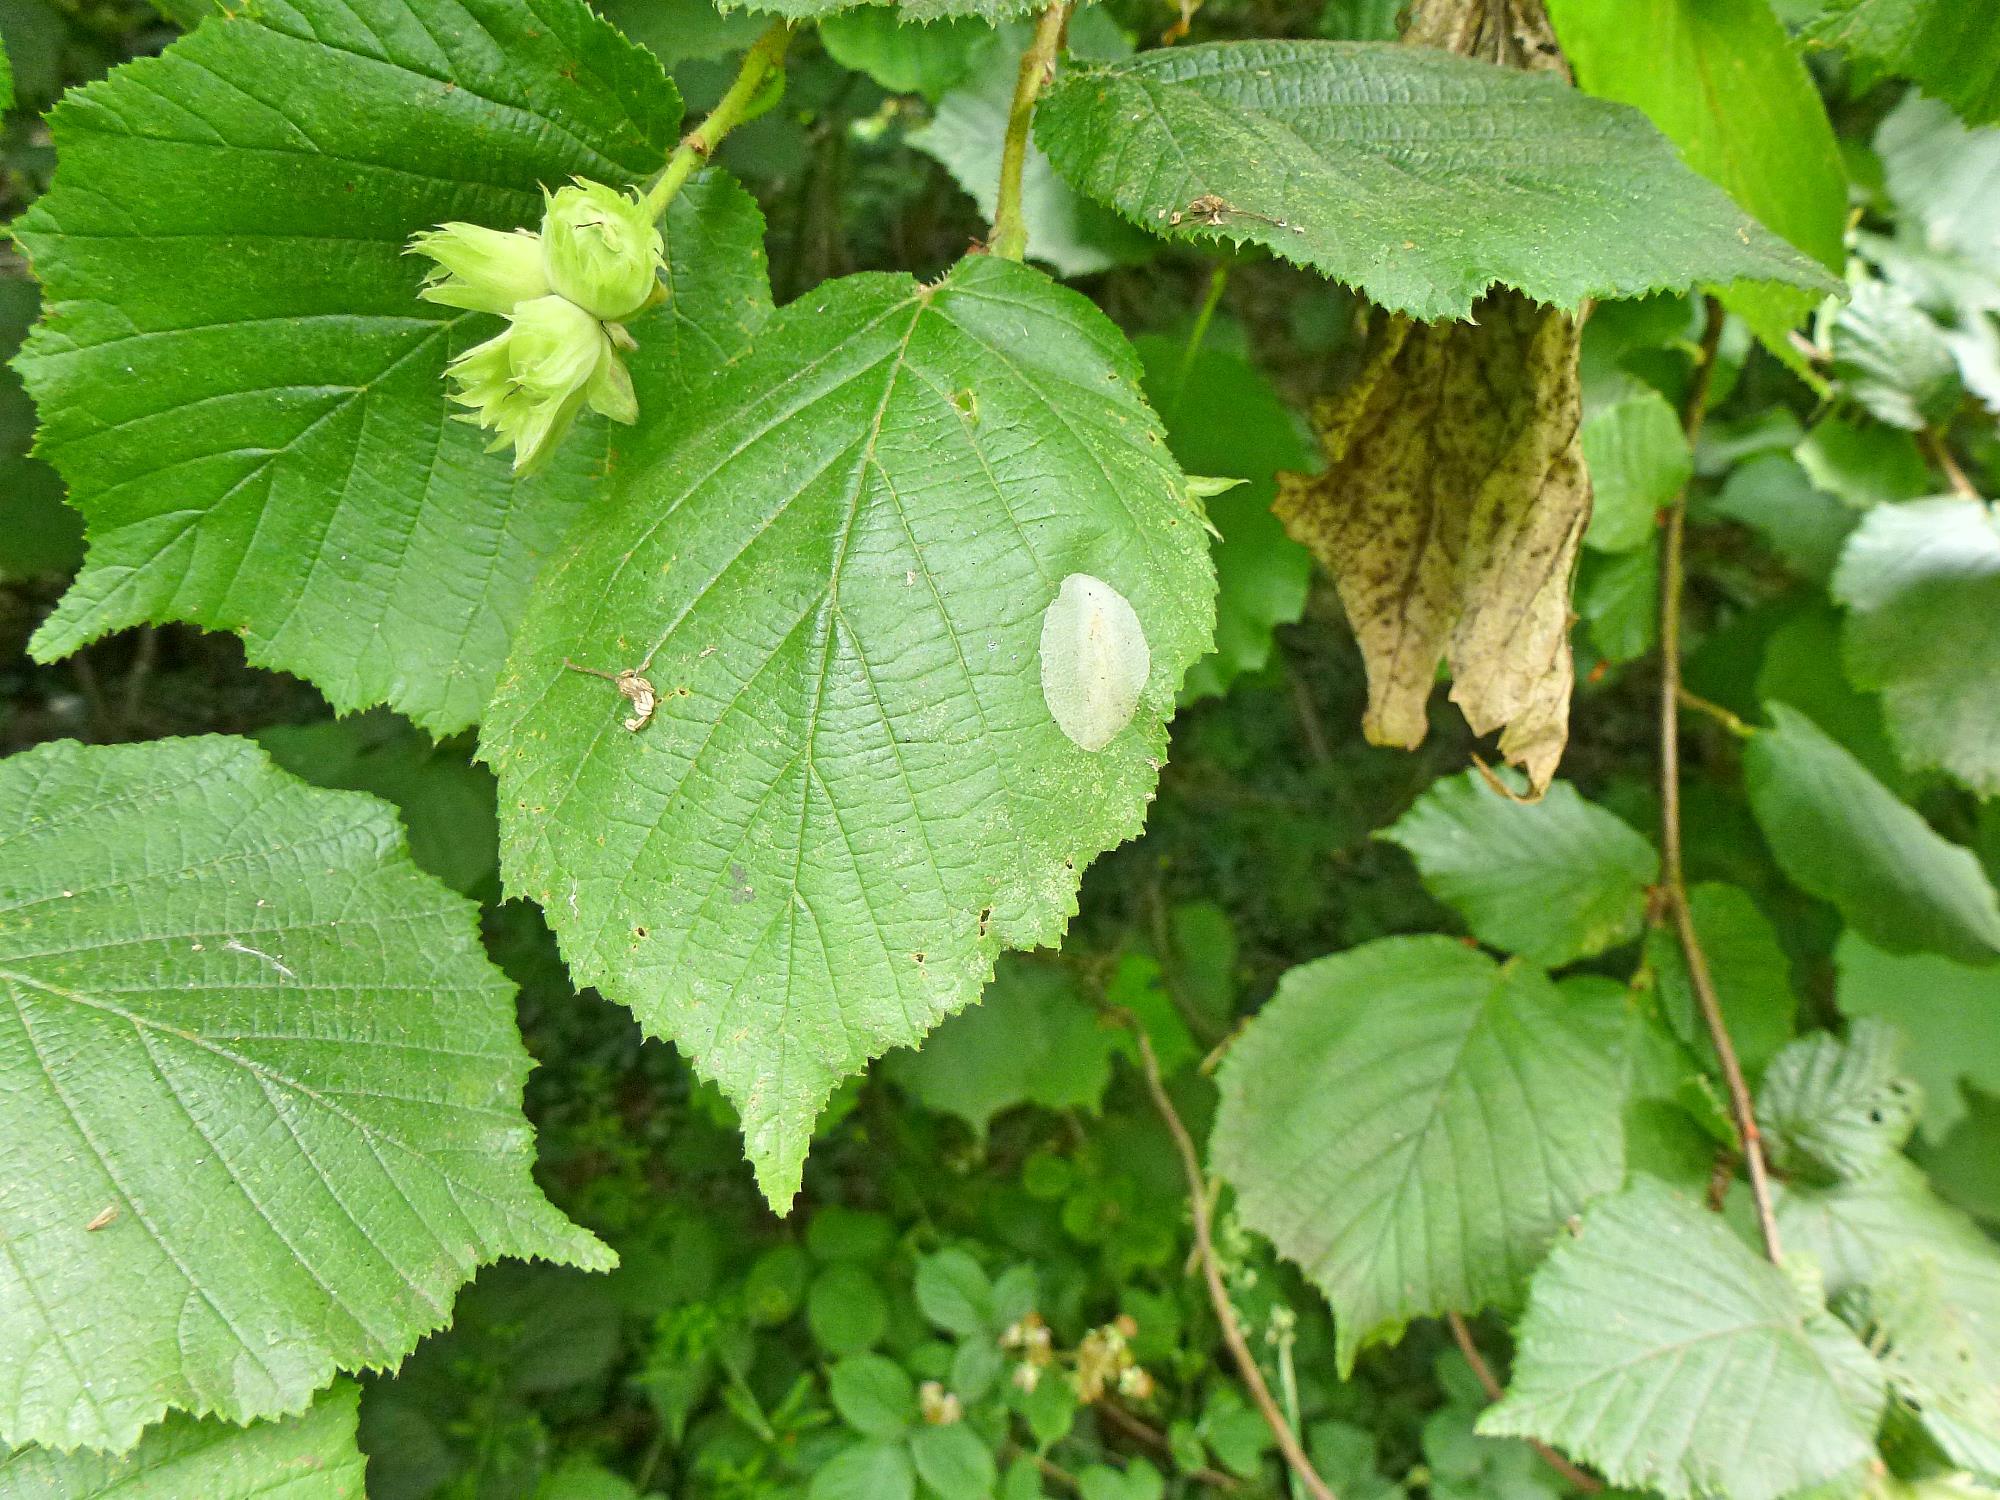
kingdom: Animalia
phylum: Arthropoda
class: Insecta
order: Lepidoptera
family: Gracillariidae
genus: Phyllonorycter
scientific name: Phyllonorycter coryli
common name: Nut-leaf blister moth
